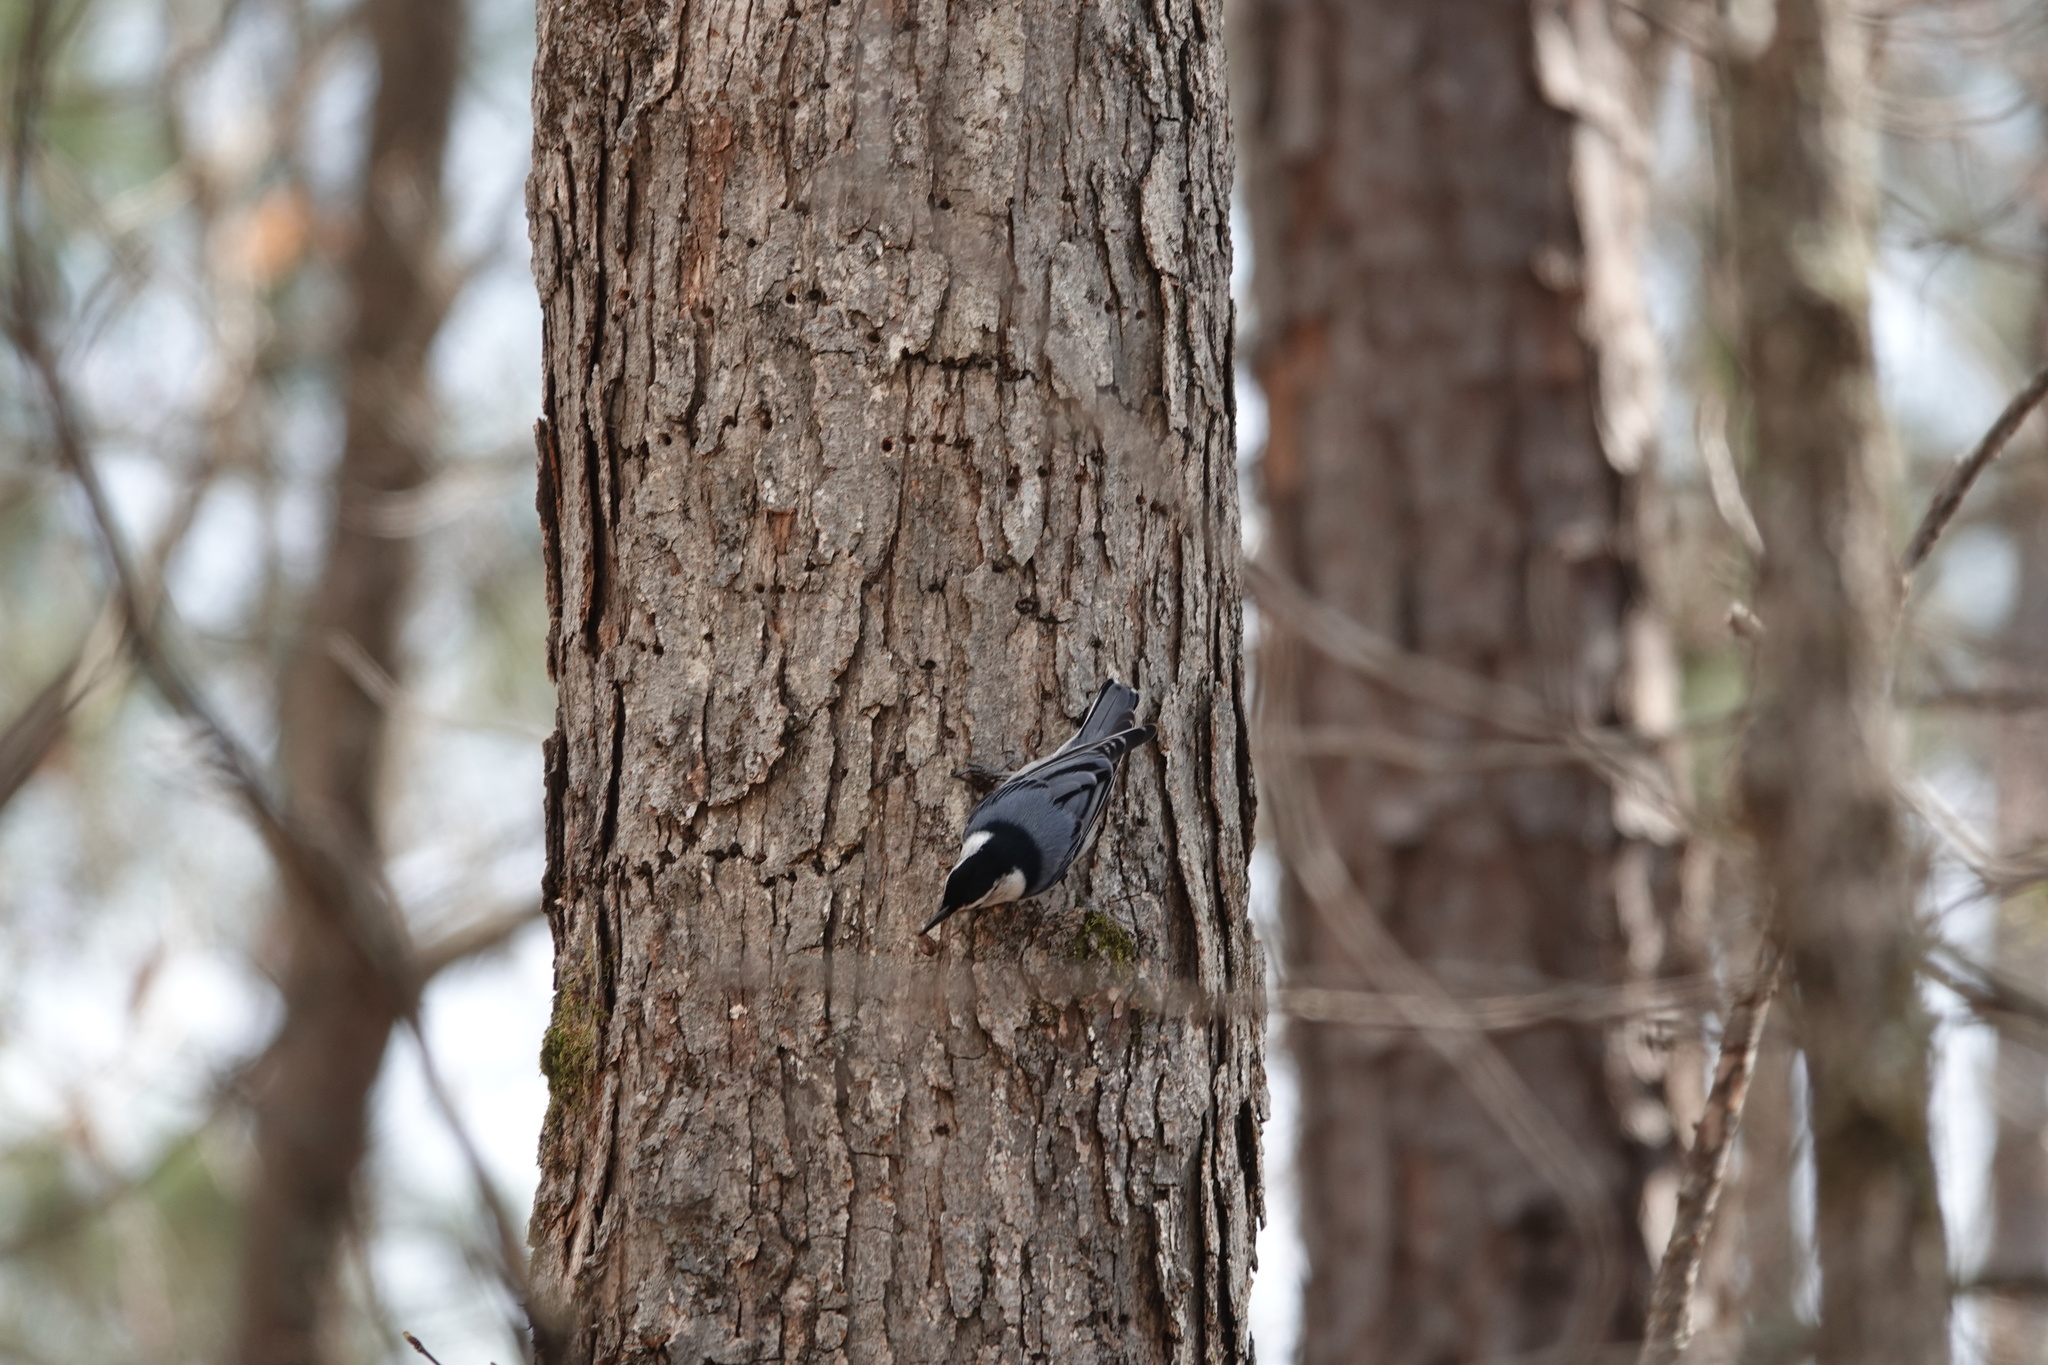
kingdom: Animalia
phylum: Chordata
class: Aves
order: Passeriformes
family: Sittidae
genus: Sitta
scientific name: Sitta carolinensis
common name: White-breasted nuthatch
